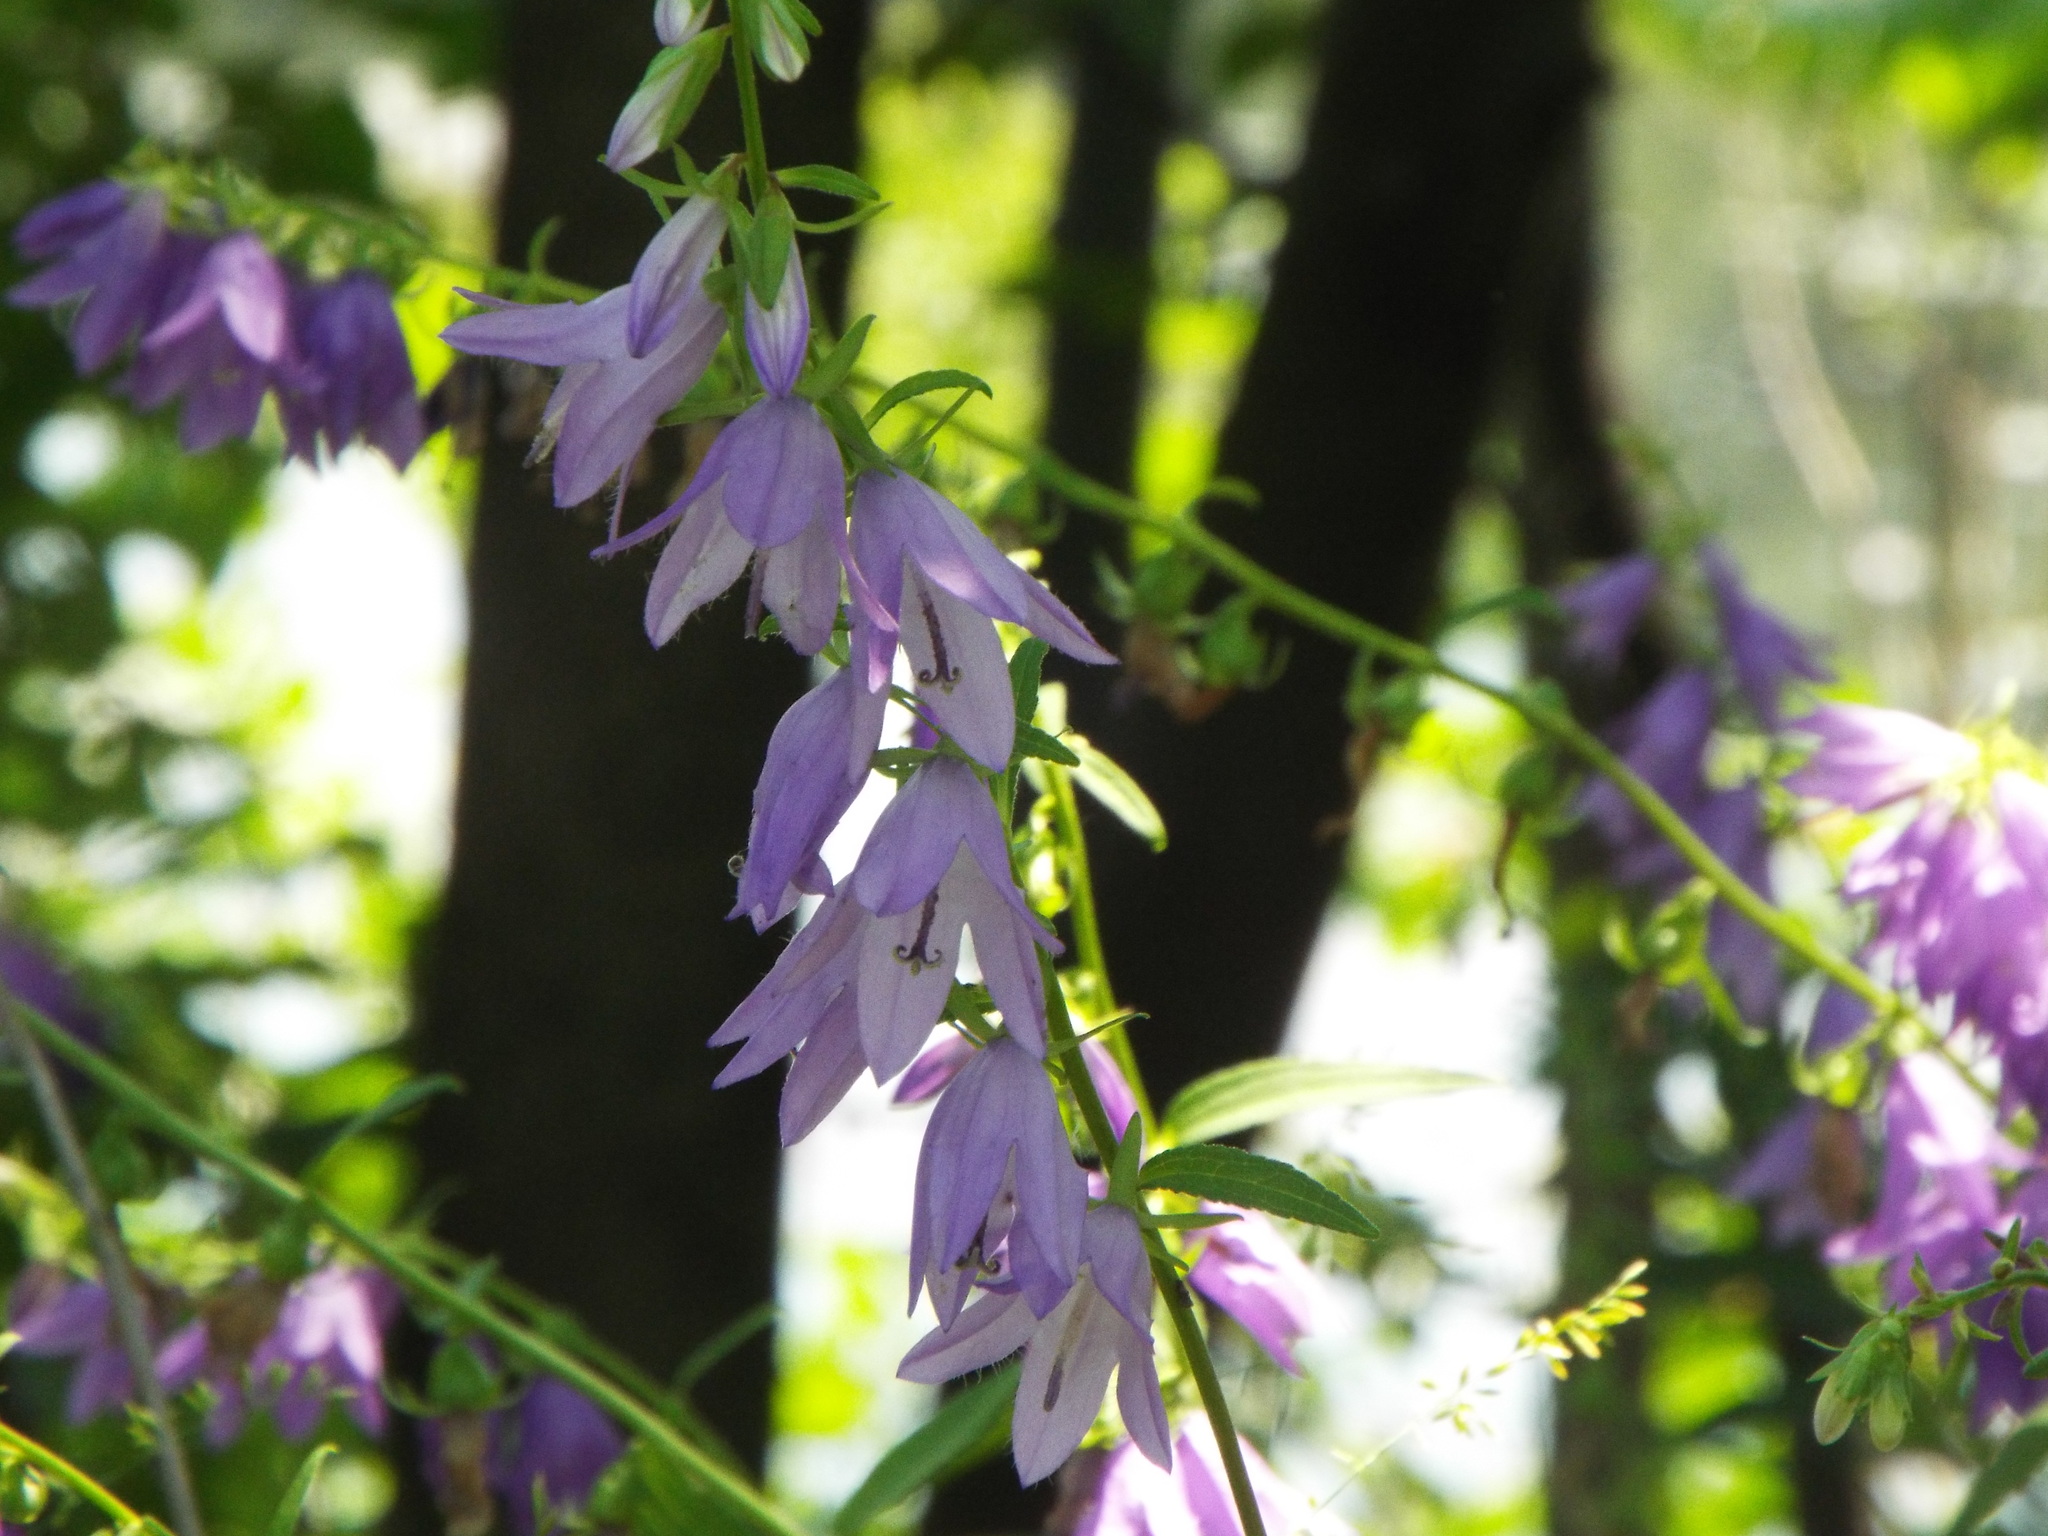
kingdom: Plantae
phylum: Tracheophyta
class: Magnoliopsida
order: Asterales
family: Campanulaceae
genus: Campanula
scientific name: Campanula rapunculoides
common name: Creeping bellflower
